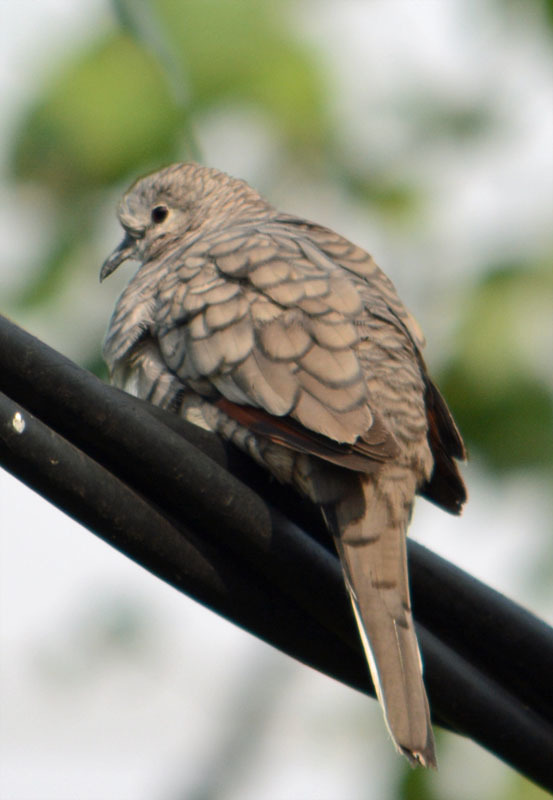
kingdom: Animalia
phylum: Chordata
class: Aves
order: Columbiformes
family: Columbidae
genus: Columbina
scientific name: Columbina inca
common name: Inca dove
